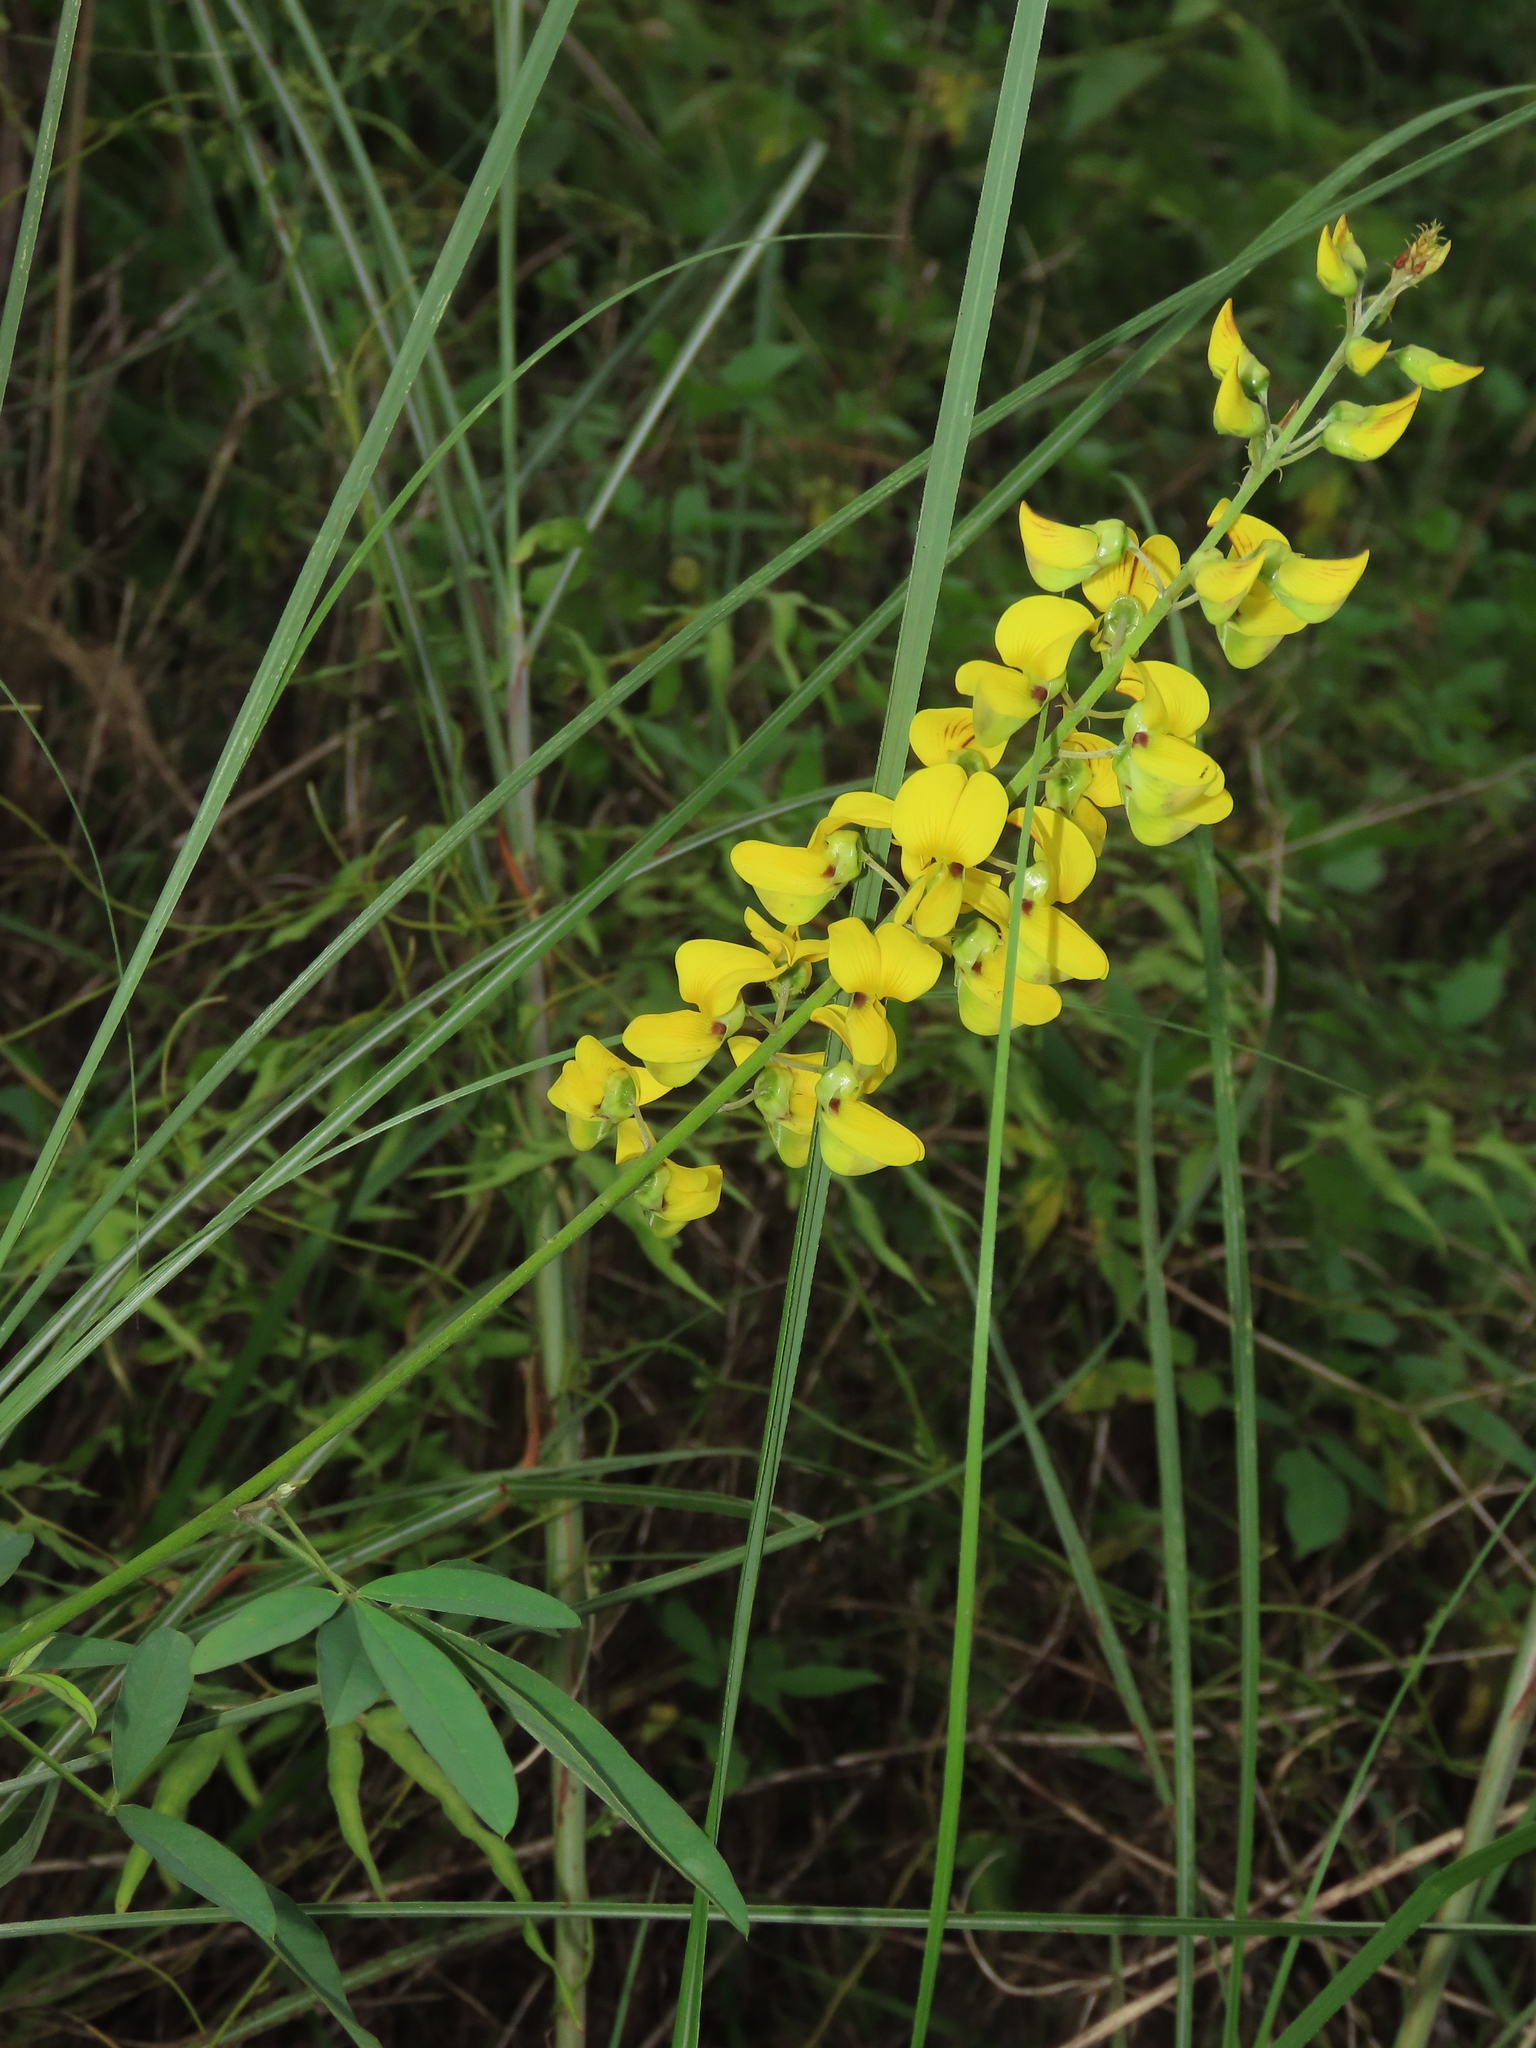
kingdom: Plantae
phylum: Tracheophyta
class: Magnoliopsida
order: Fabales
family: Fabaceae
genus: Crotalaria
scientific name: Crotalaria trichotoma
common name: West indian rattlebox
